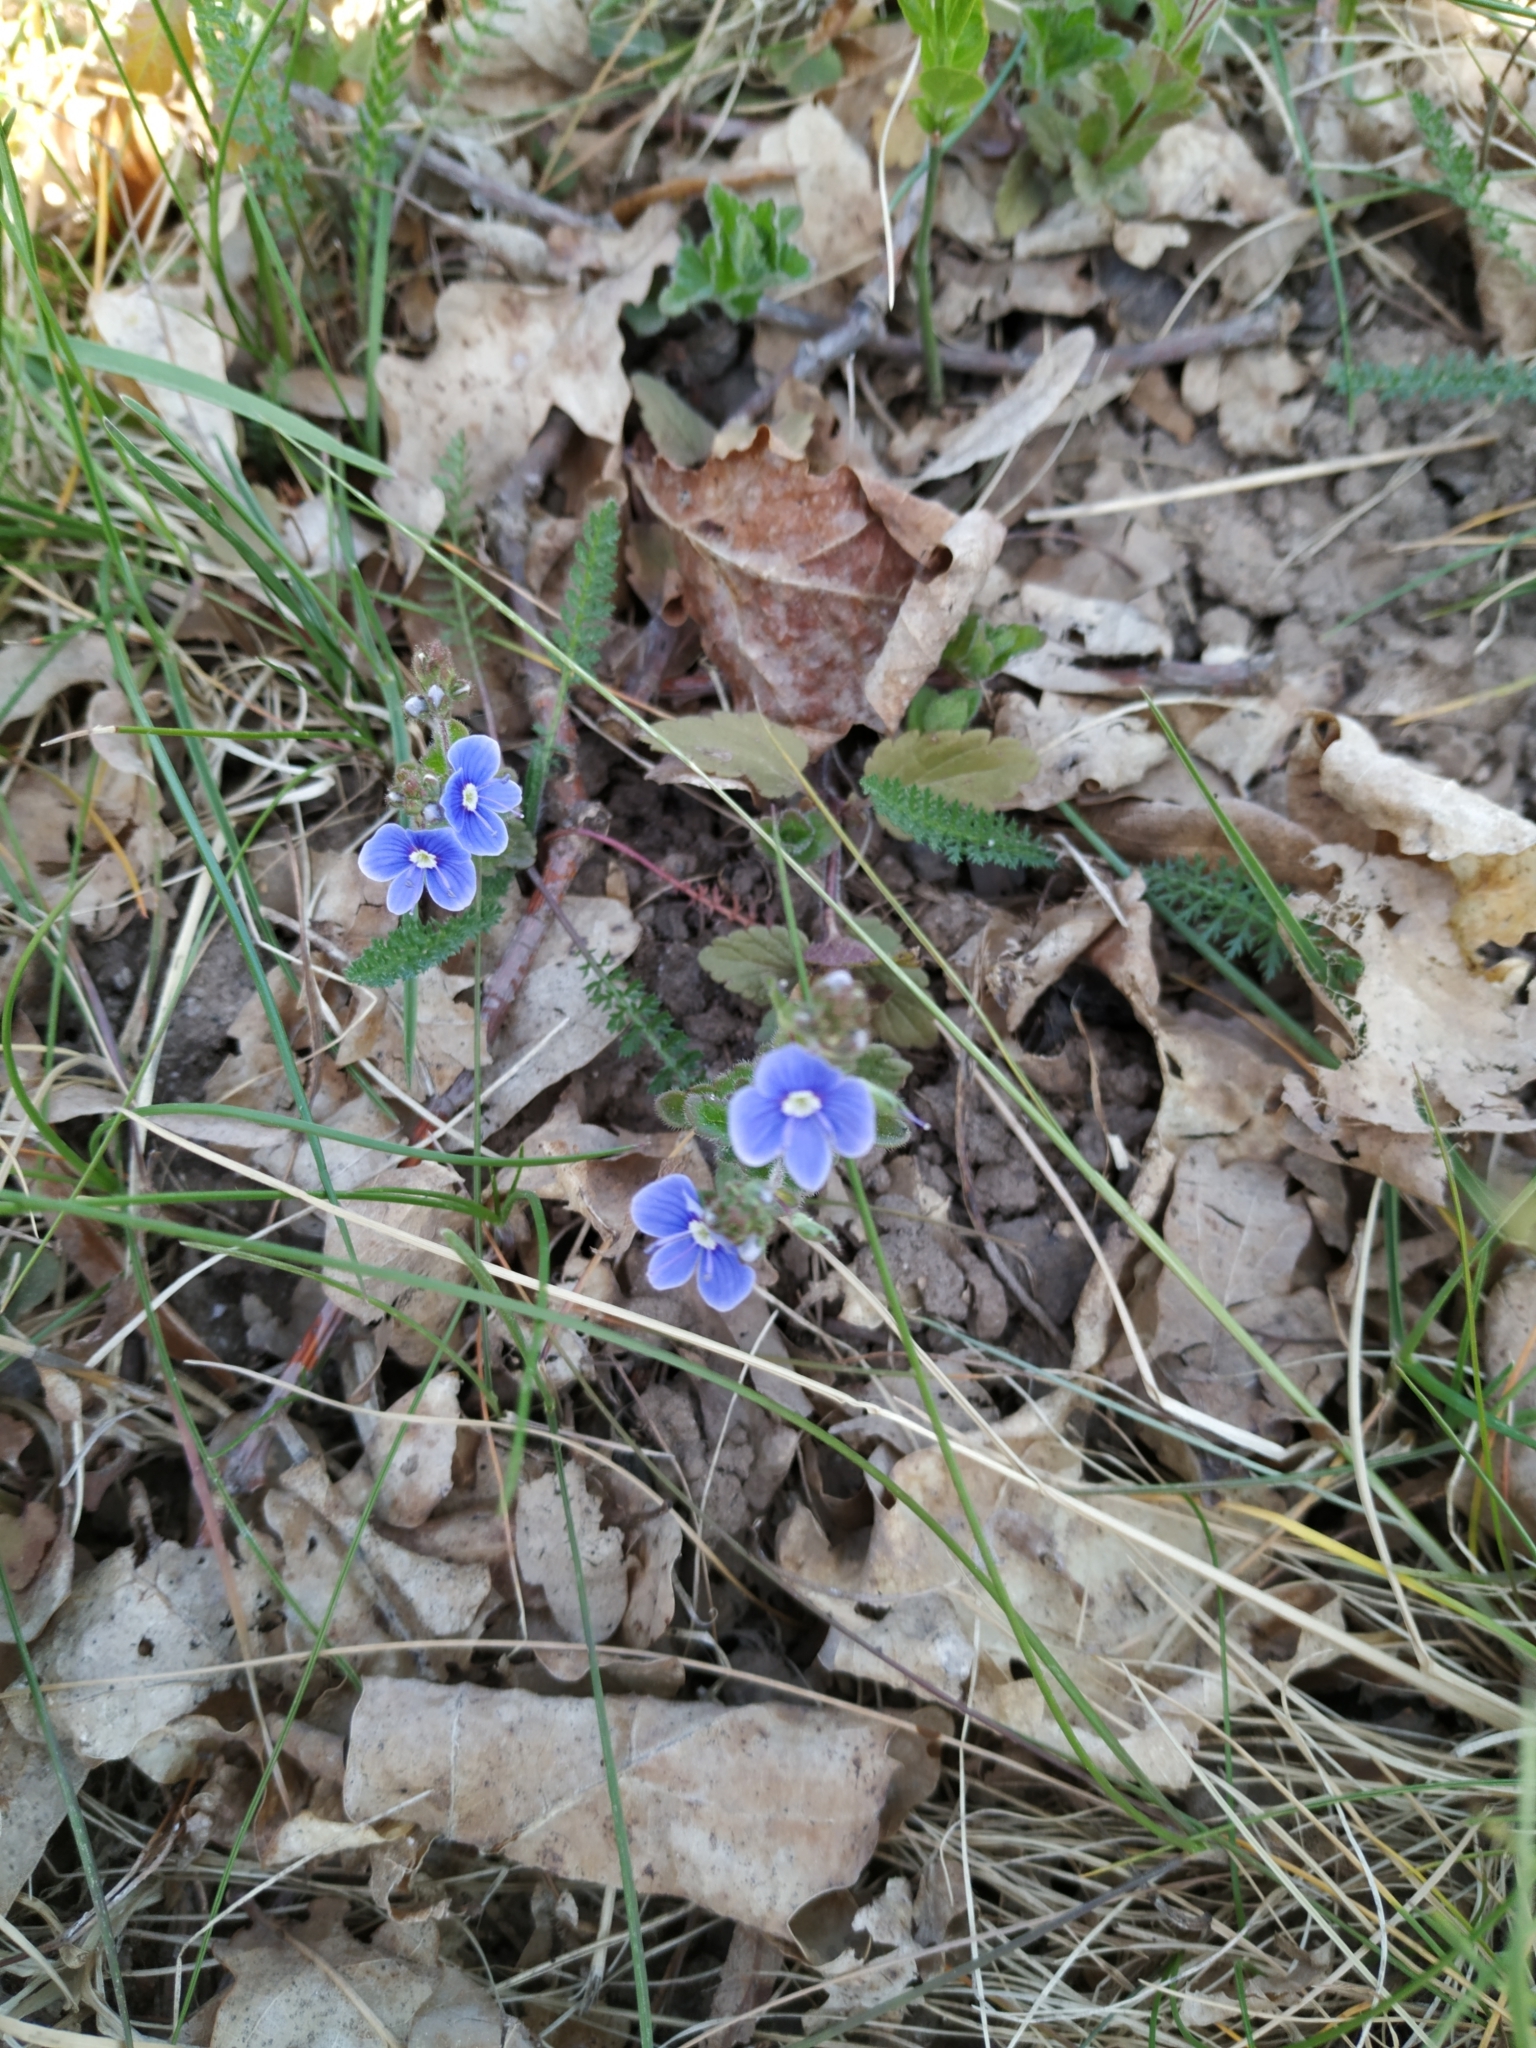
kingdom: Plantae
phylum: Tracheophyta
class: Magnoliopsida
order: Lamiales
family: Plantaginaceae
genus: Veronica
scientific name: Veronica chamaedrys
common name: Germander speedwell
